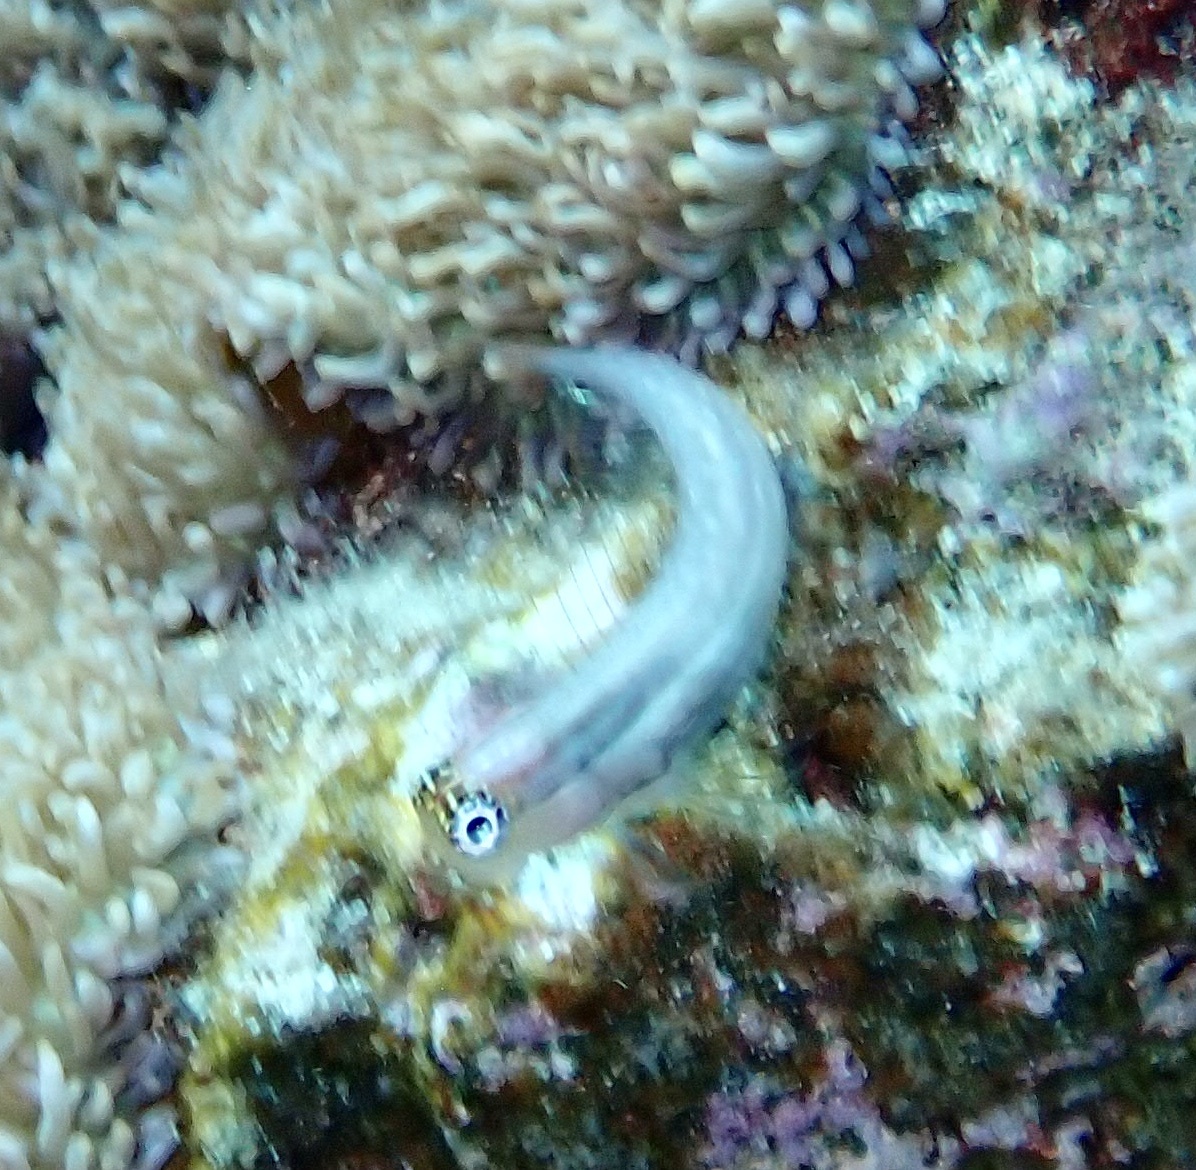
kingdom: Animalia
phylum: Chordata
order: Perciformes
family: Blenniidae
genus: Ecsenius
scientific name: Ecsenius dentex
